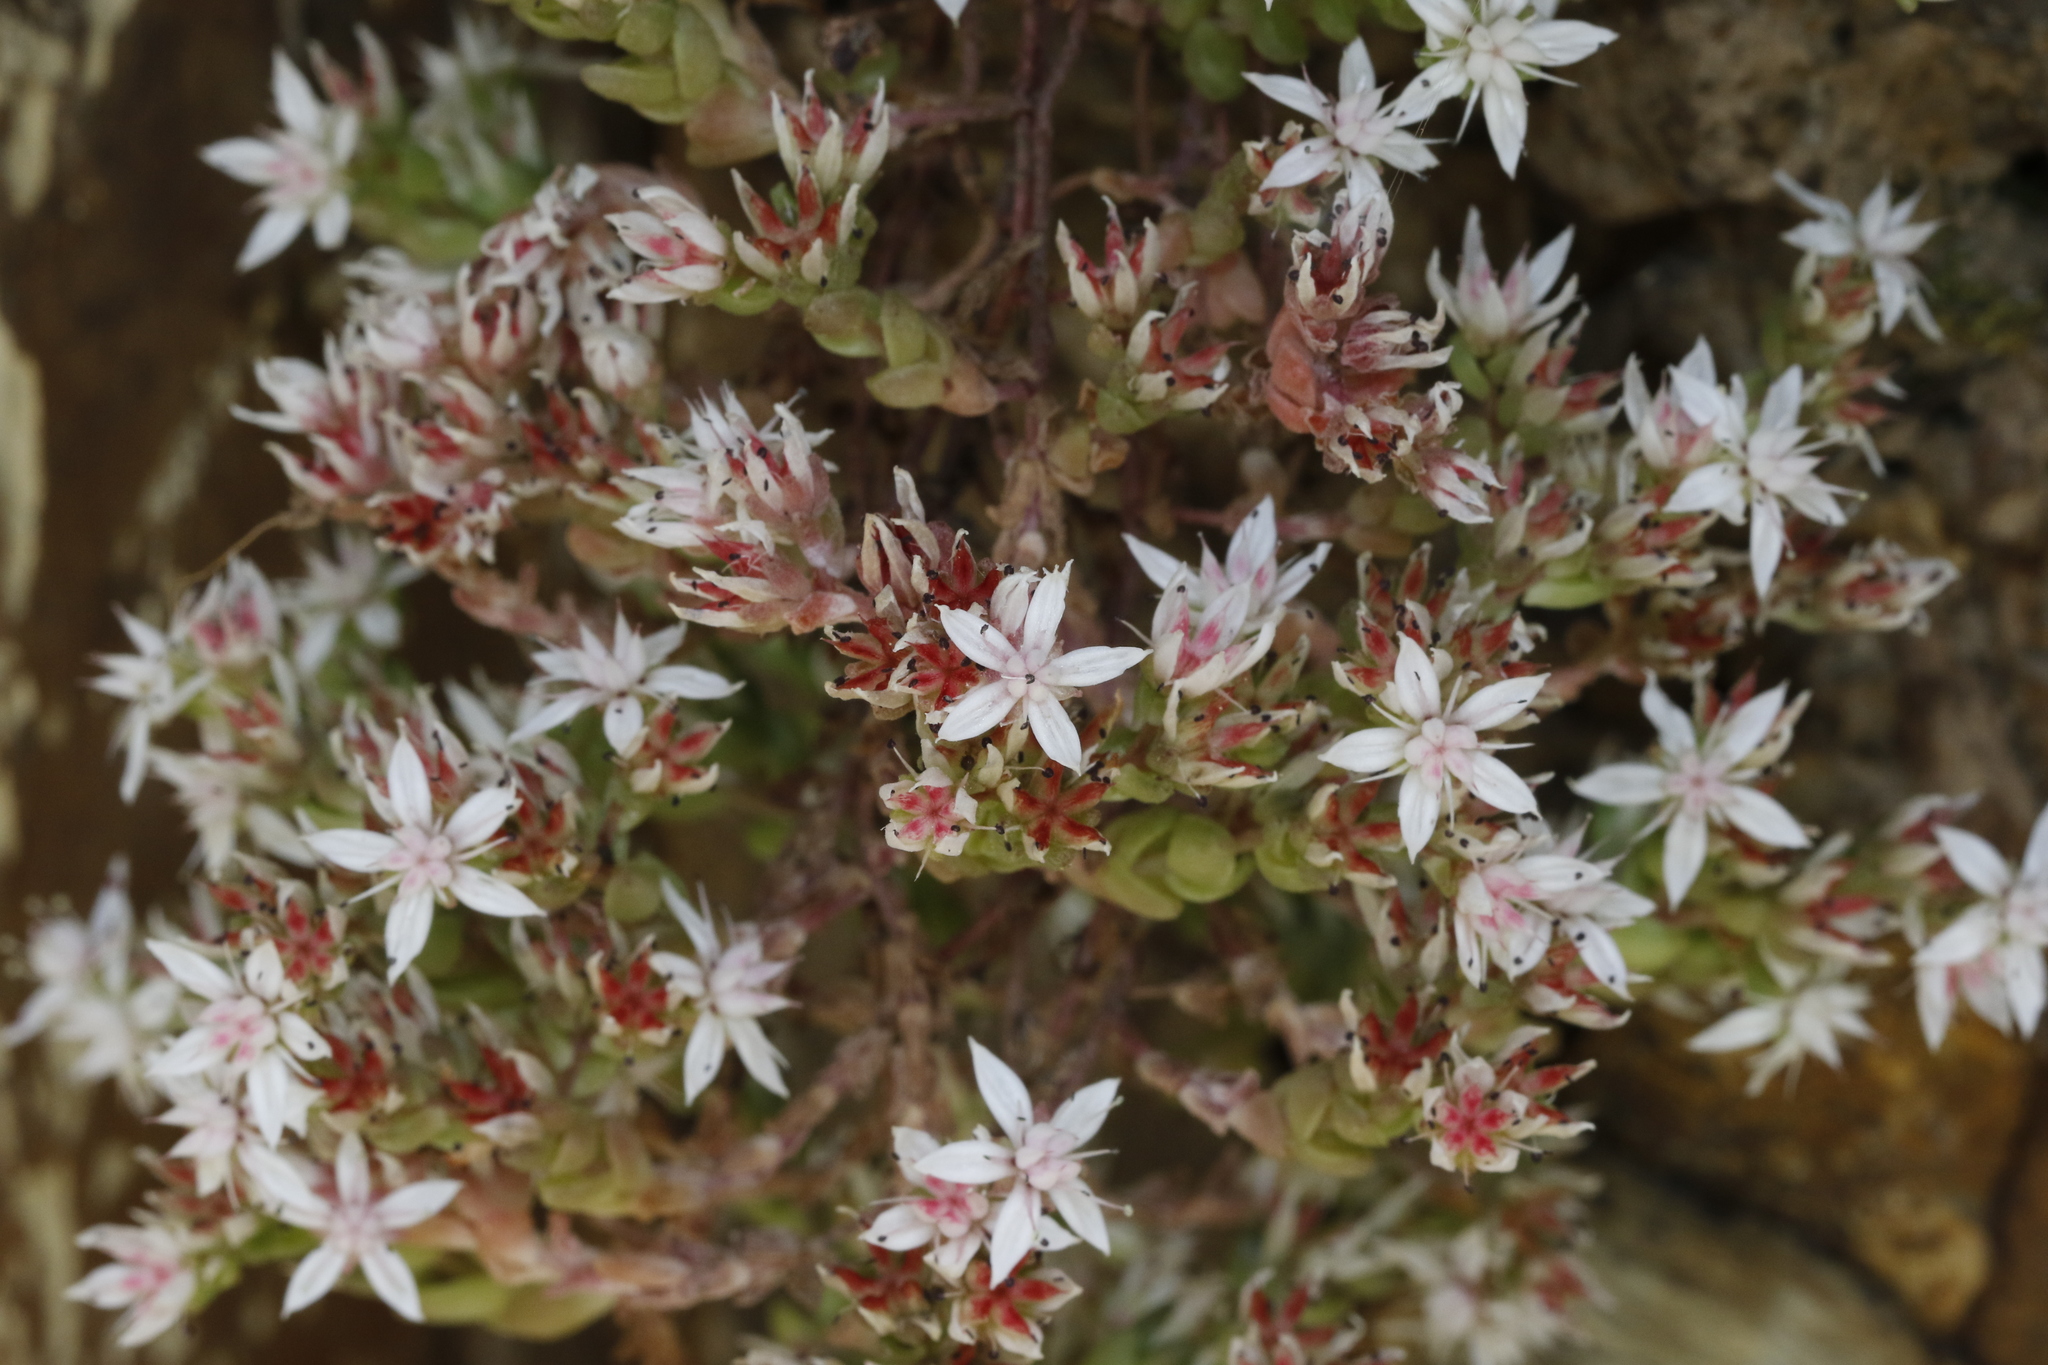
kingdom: Plantae
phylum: Tracheophyta
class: Magnoliopsida
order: Saxifragales
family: Crassulaceae
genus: Sedum
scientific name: Sedum anglicum
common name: English stonecrop
